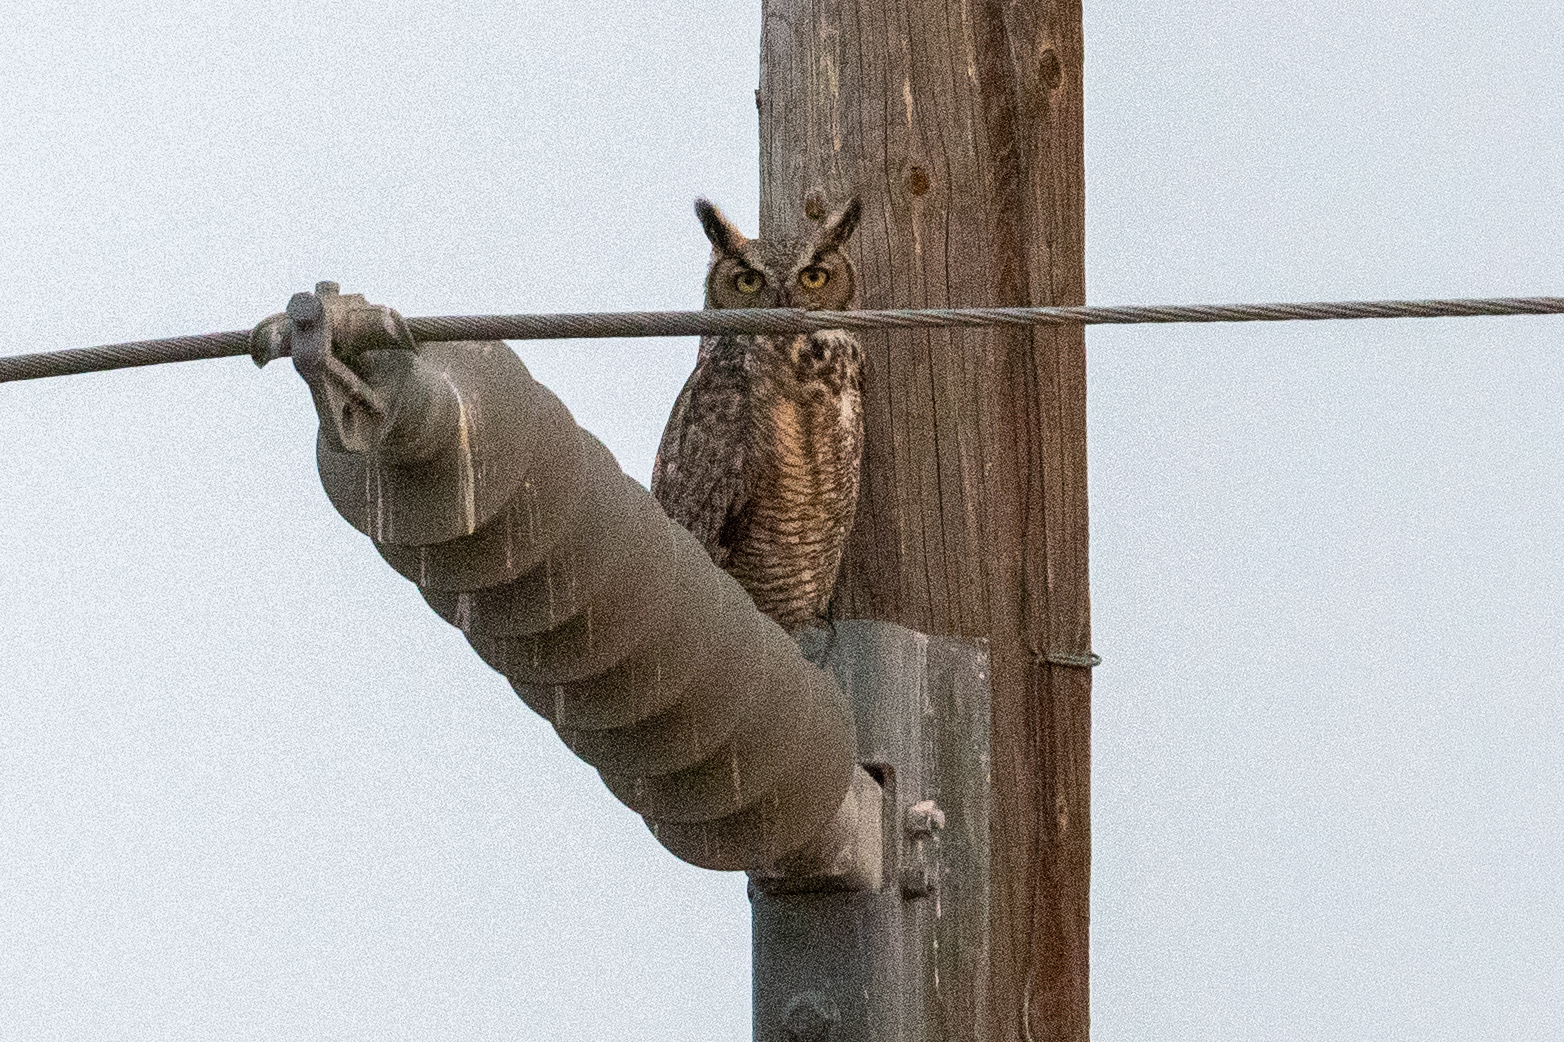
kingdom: Animalia
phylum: Chordata
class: Aves
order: Strigiformes
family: Strigidae
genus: Bubo
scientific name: Bubo virginianus
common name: Great horned owl
